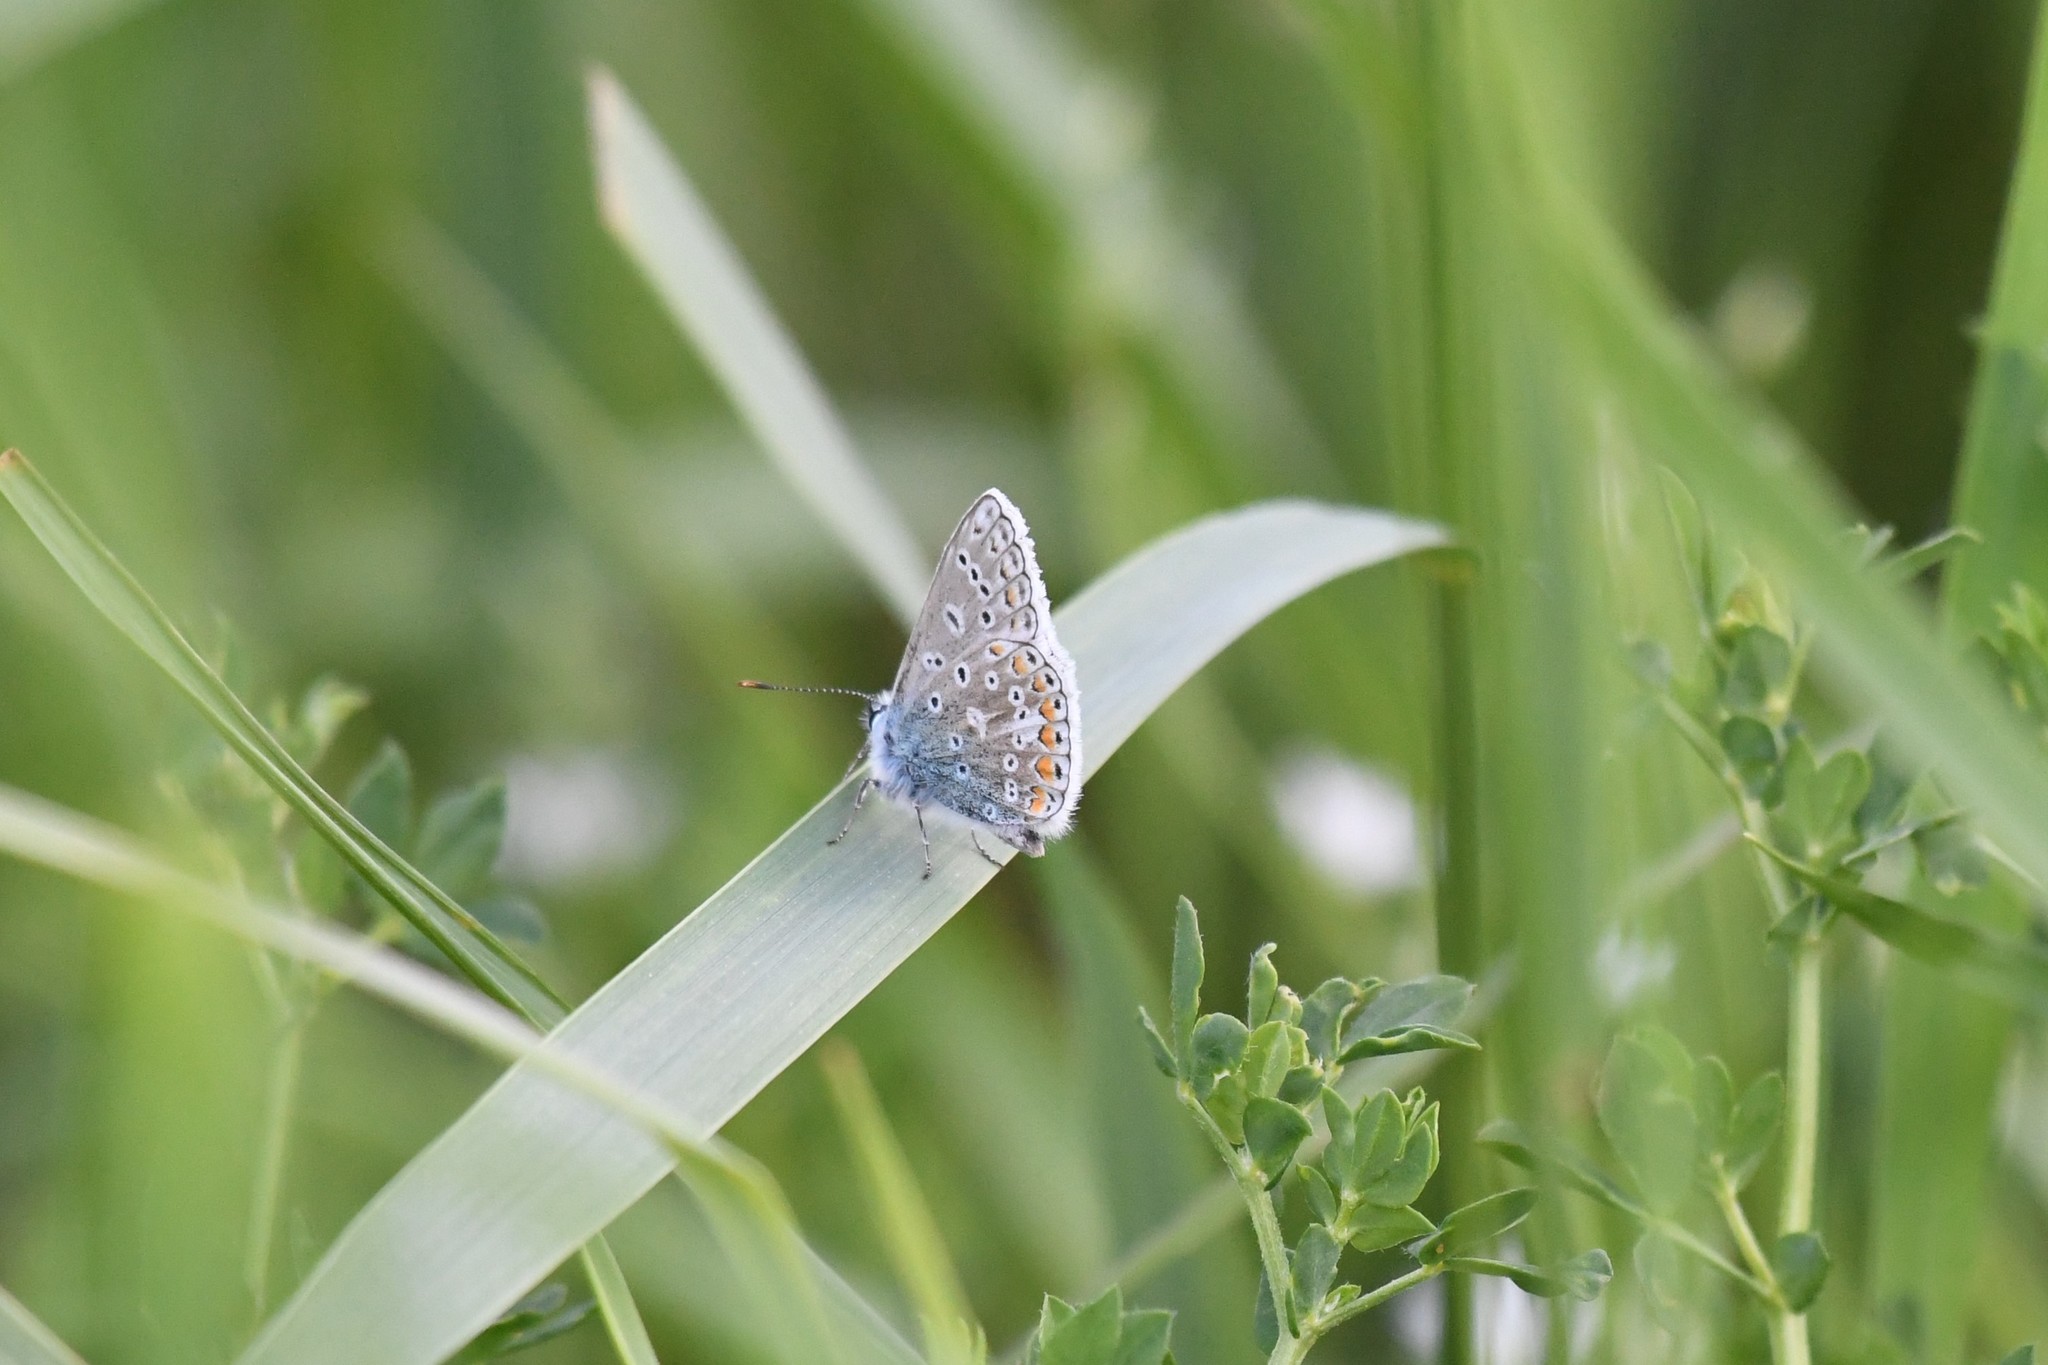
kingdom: Animalia
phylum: Arthropoda
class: Insecta
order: Lepidoptera
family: Lycaenidae
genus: Polyommatus
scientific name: Polyommatus icarus
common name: Common blue
